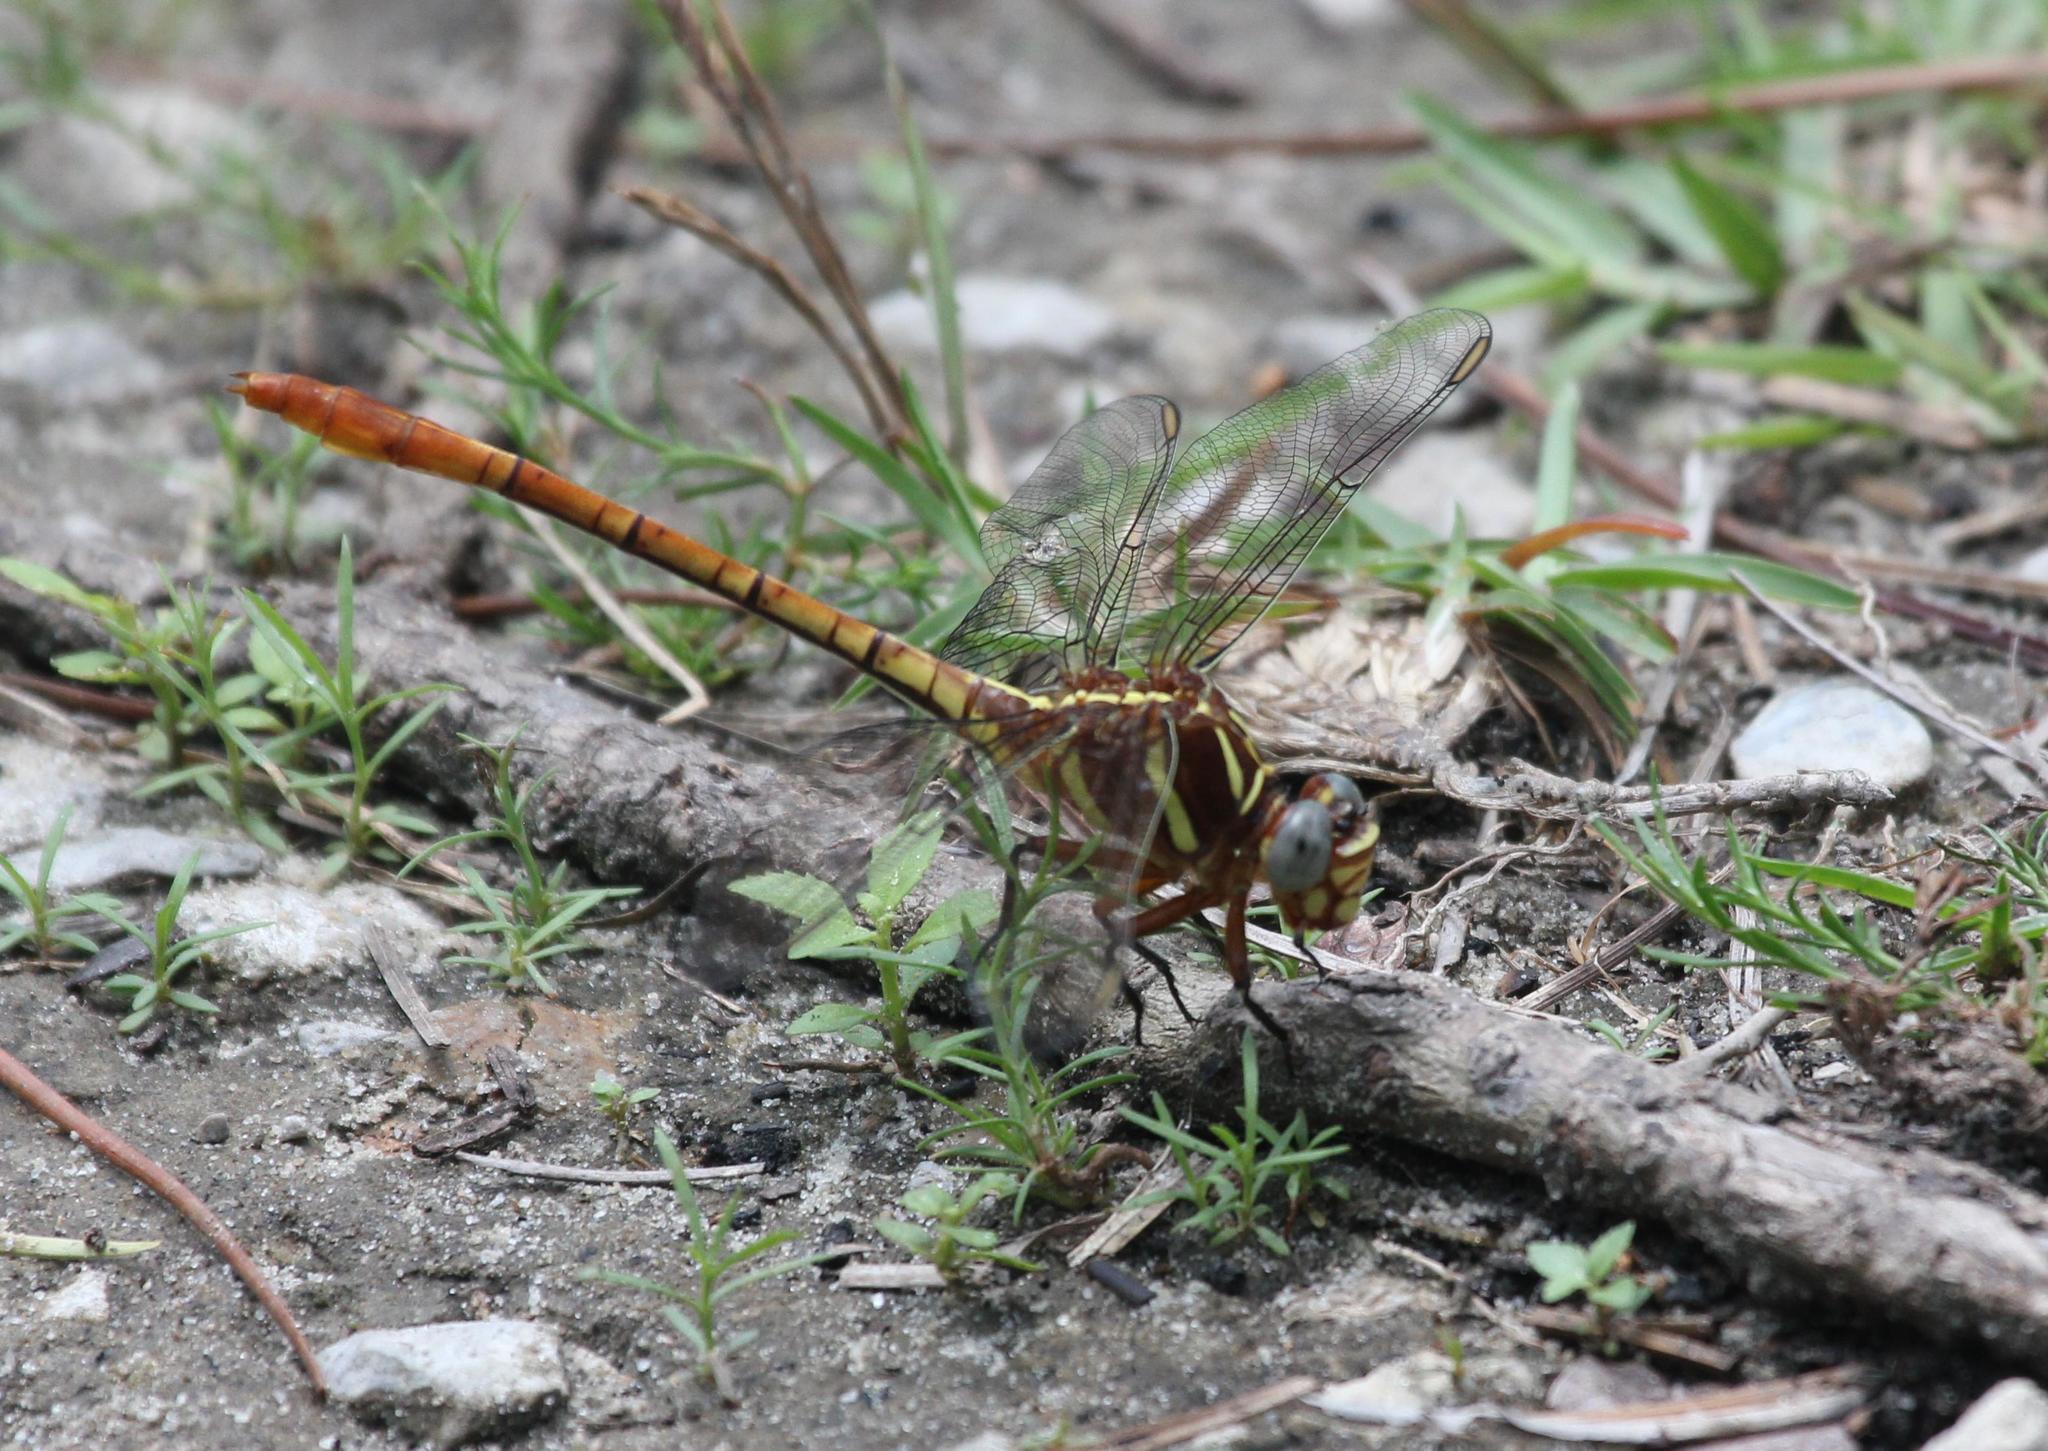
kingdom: Animalia
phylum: Arthropoda
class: Insecta
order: Odonata
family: Gomphidae
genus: Aphylla
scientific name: Aphylla williamsoni
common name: Two-striped forceptail
